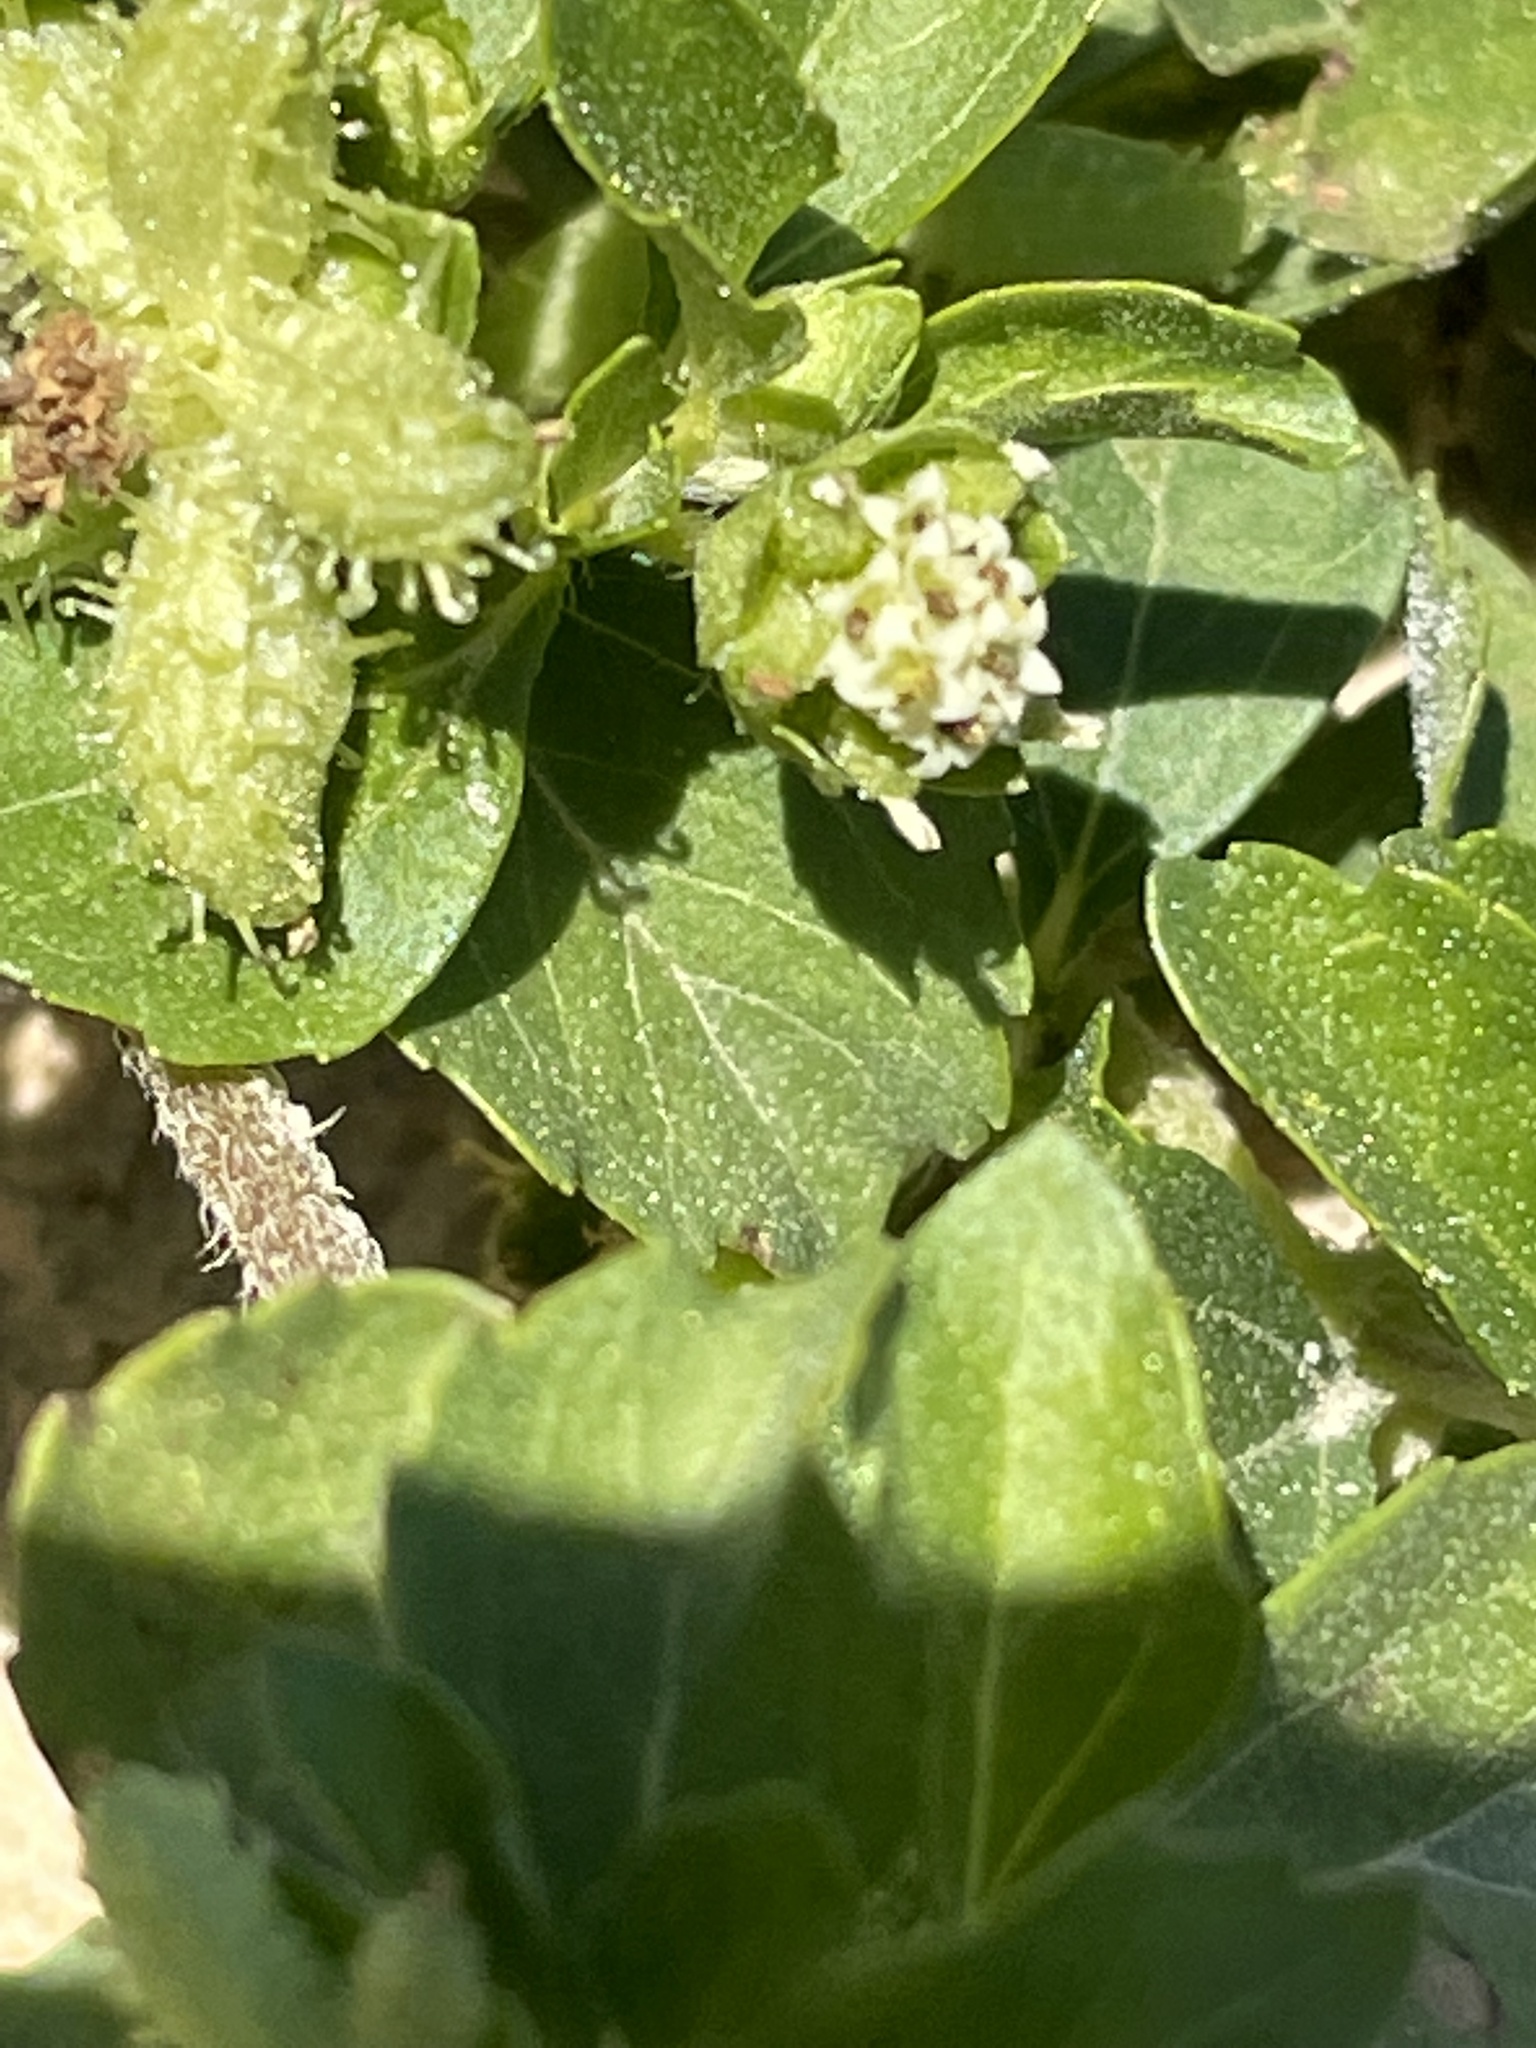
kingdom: Plantae
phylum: Tracheophyta
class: Magnoliopsida
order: Asterales
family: Asteraceae
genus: Acanthospermum
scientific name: Acanthospermum australe
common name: Paraguayan starbur
